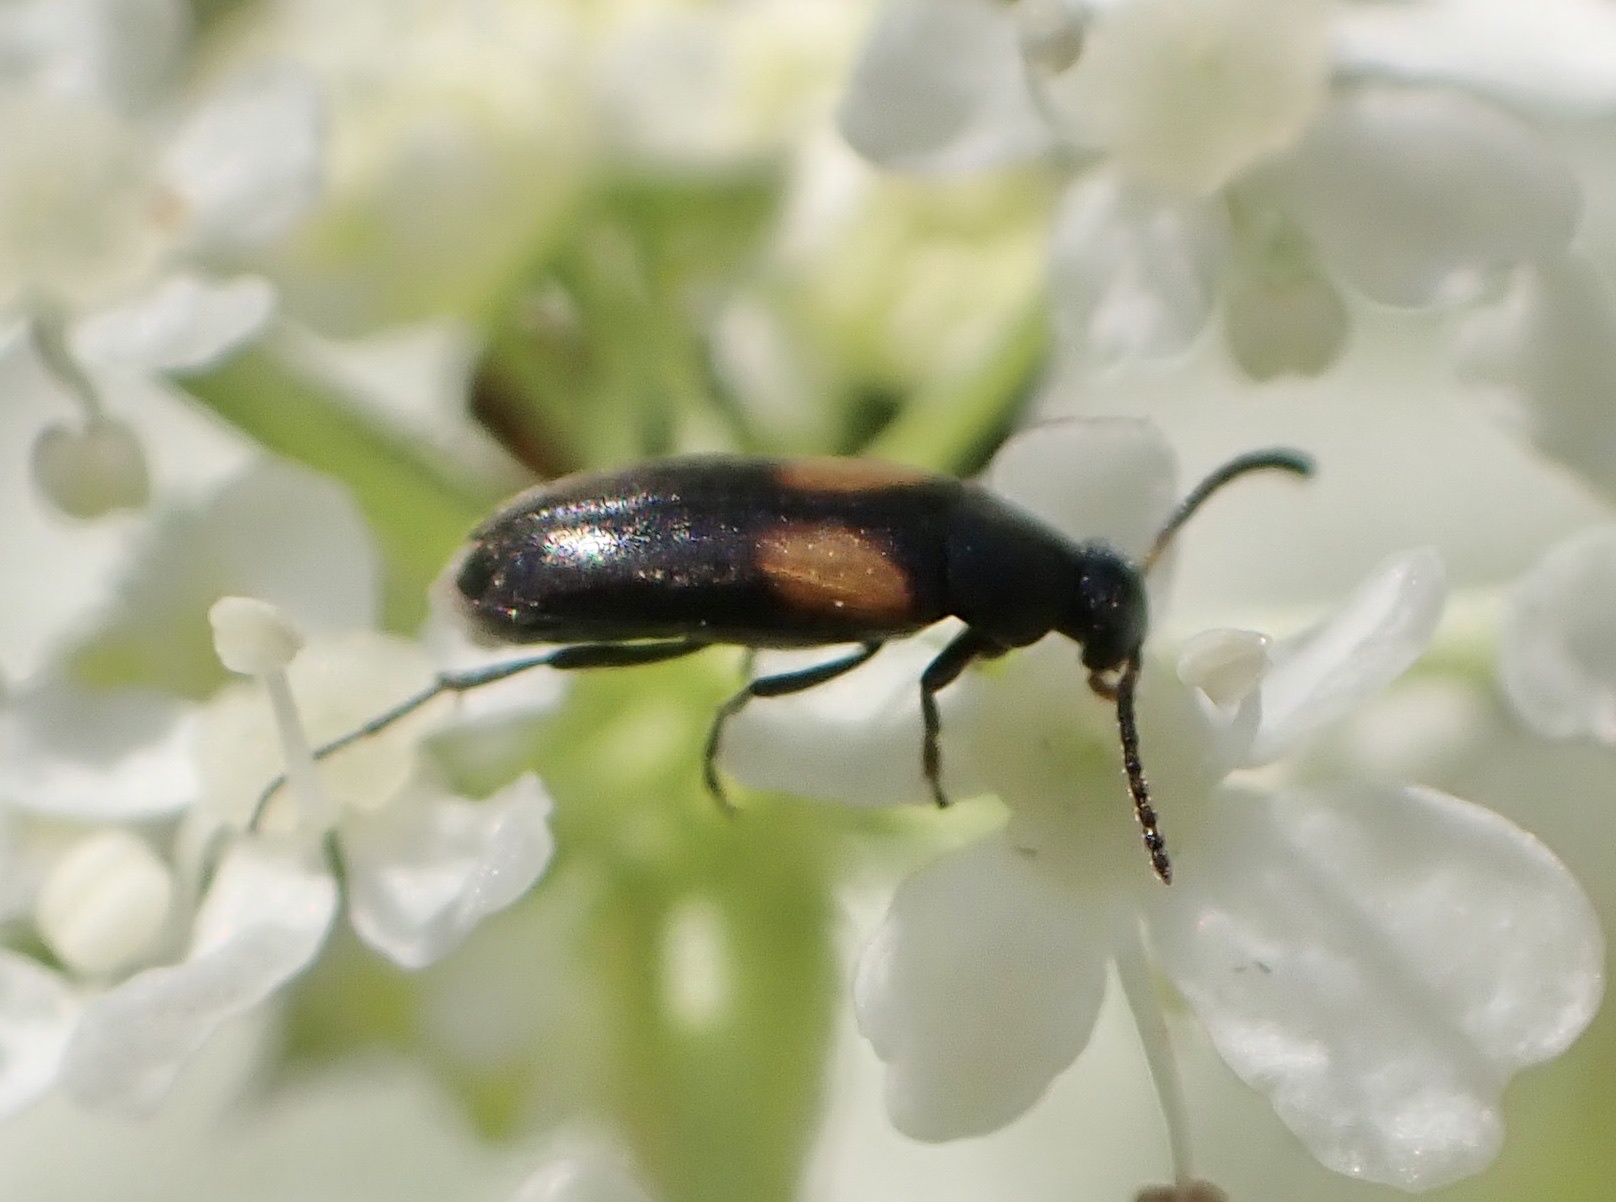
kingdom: Animalia
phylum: Arthropoda
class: Insecta
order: Coleoptera
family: Scraptiidae
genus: Anaspis
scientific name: Anaspis fasciata
